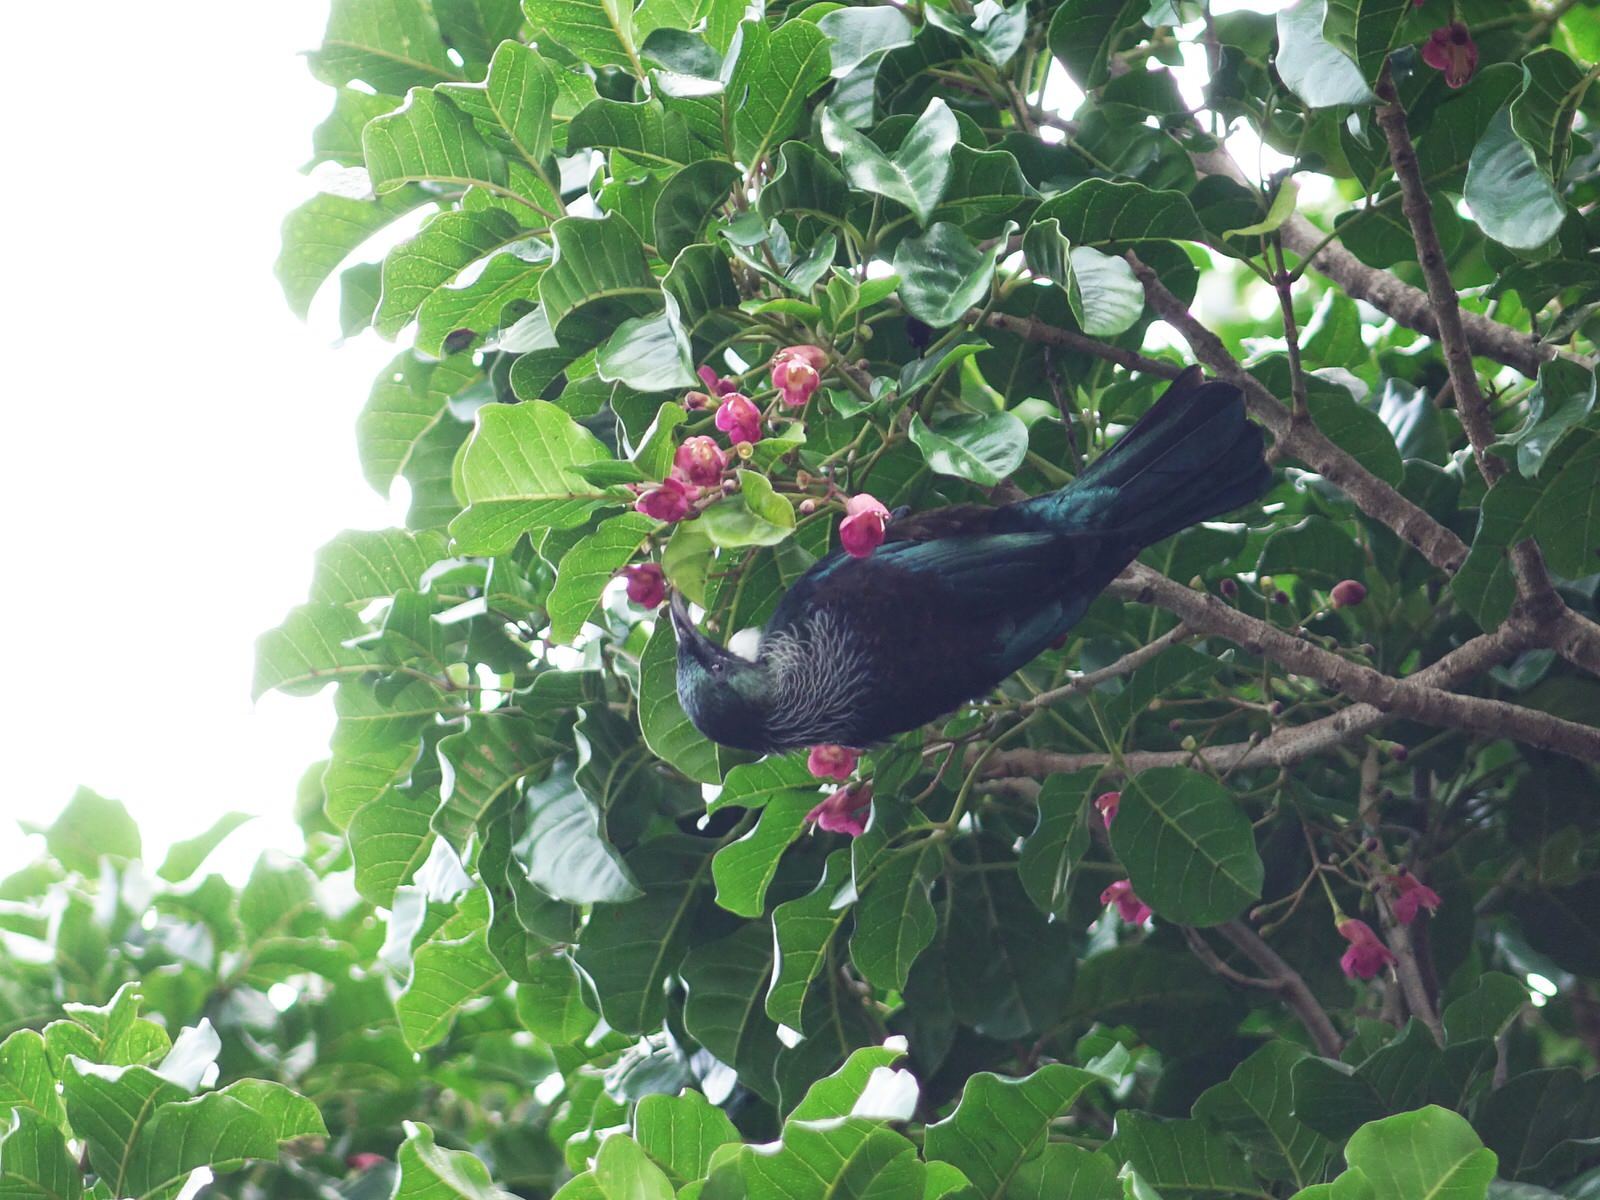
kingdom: Animalia
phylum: Chordata
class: Aves
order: Passeriformes
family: Meliphagidae
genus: Prosthemadera
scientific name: Prosthemadera novaeseelandiae
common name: Tui
